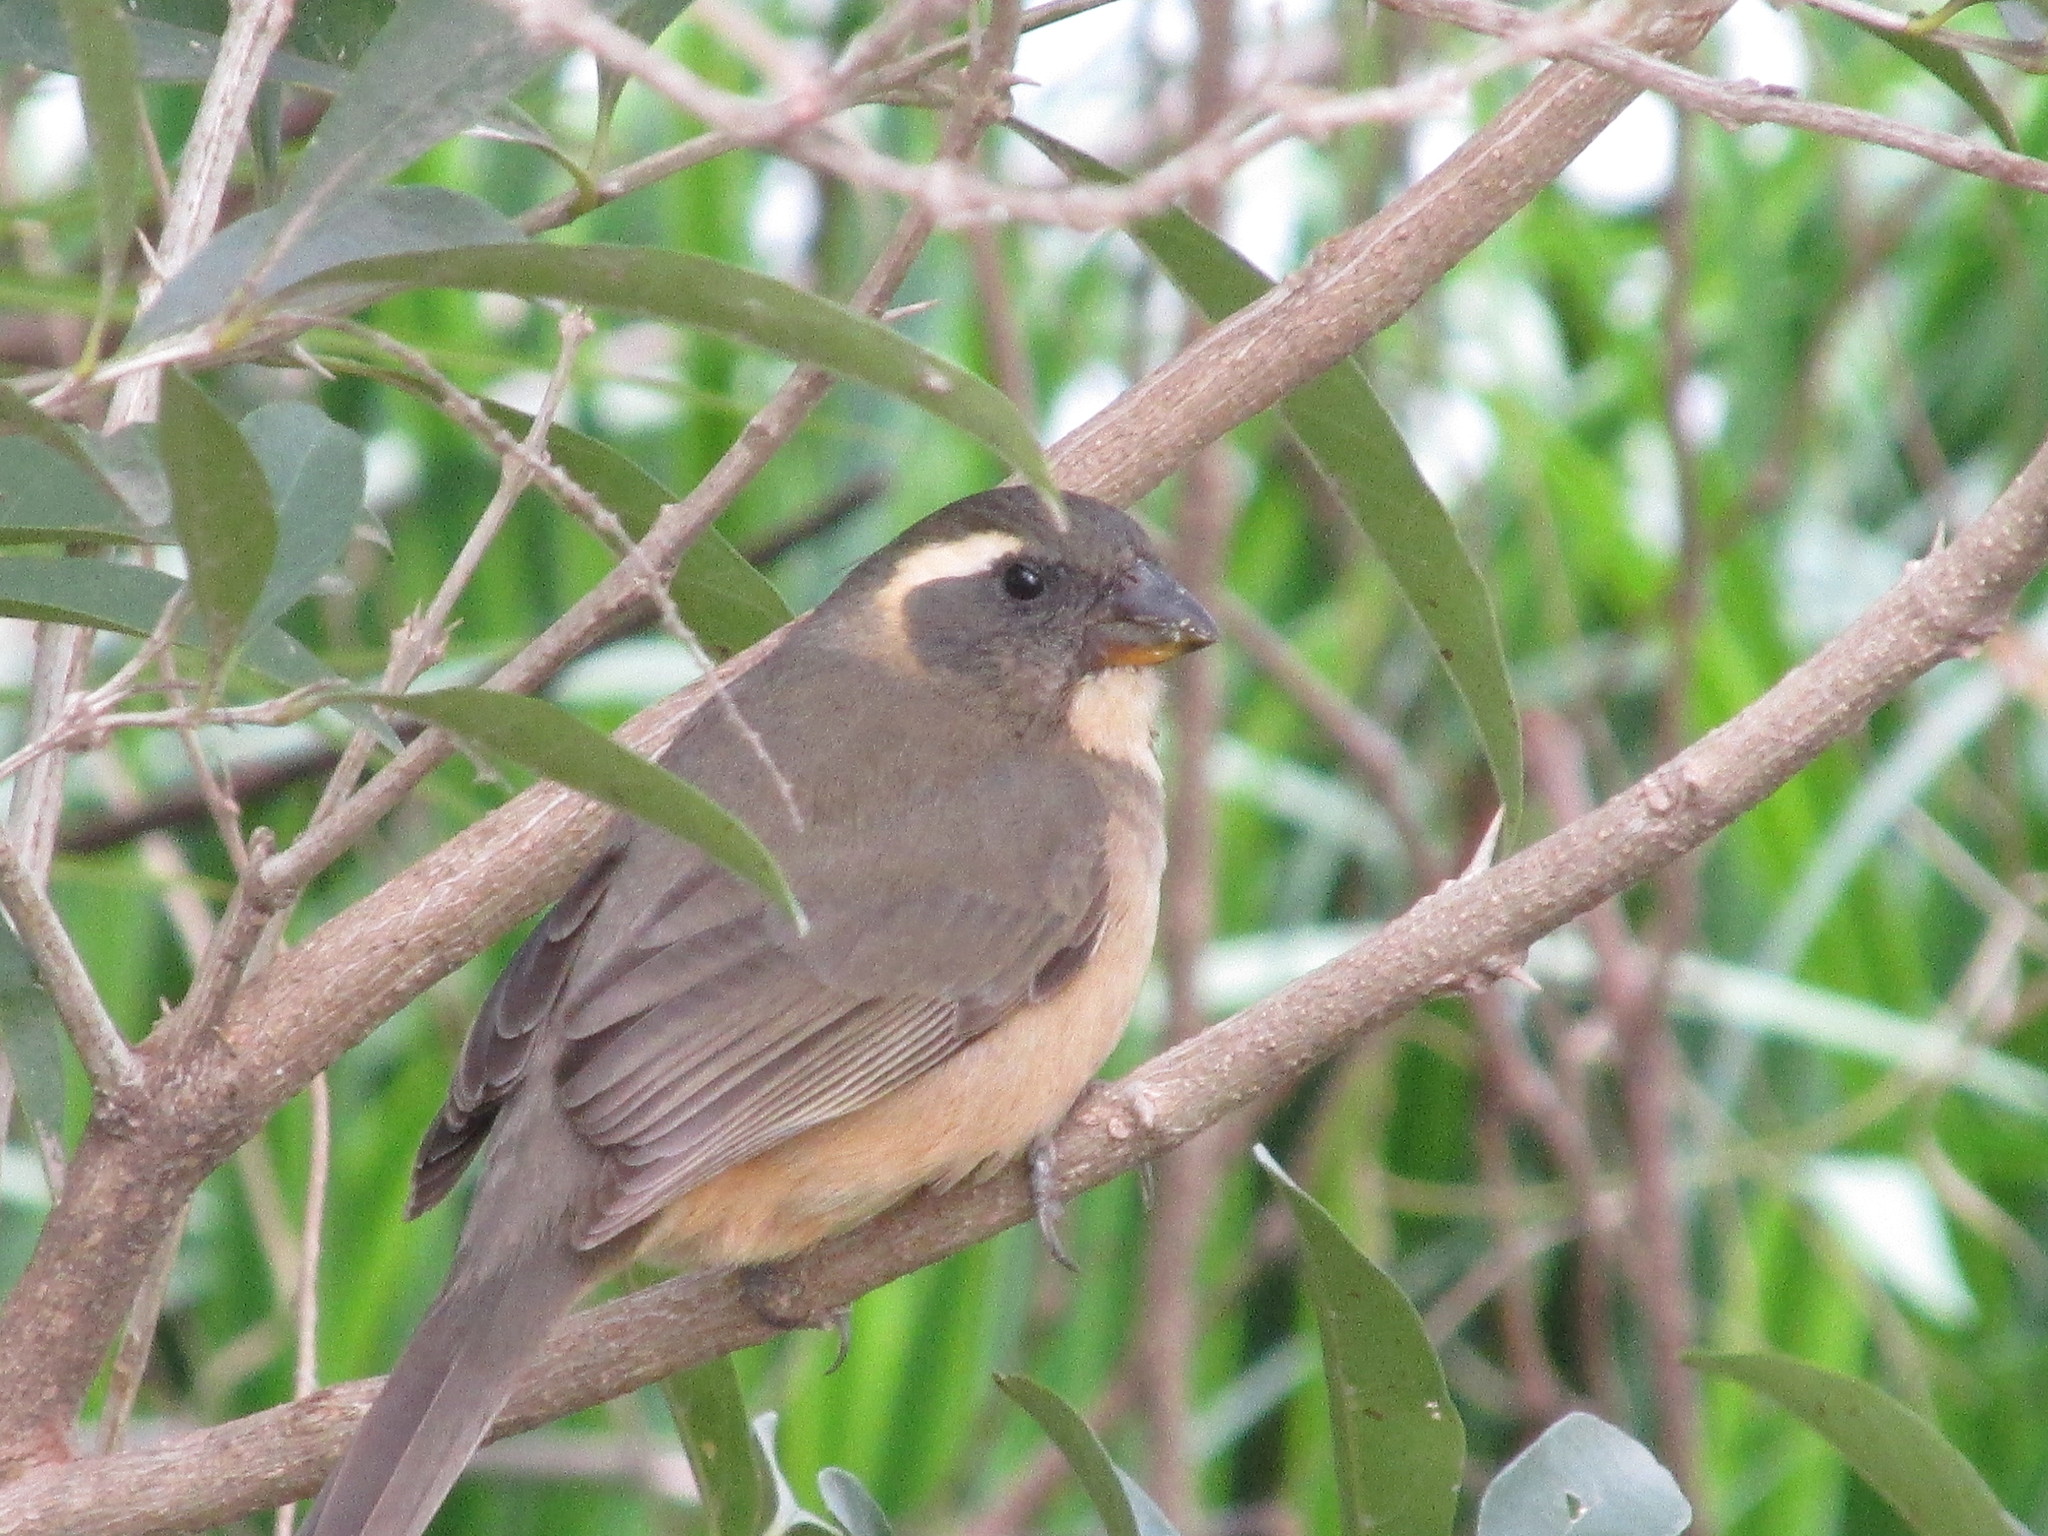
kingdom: Animalia
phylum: Chordata
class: Aves
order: Passeriformes
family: Thraupidae
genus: Saltator
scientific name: Saltator aurantiirostris
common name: Golden-billed saltator
